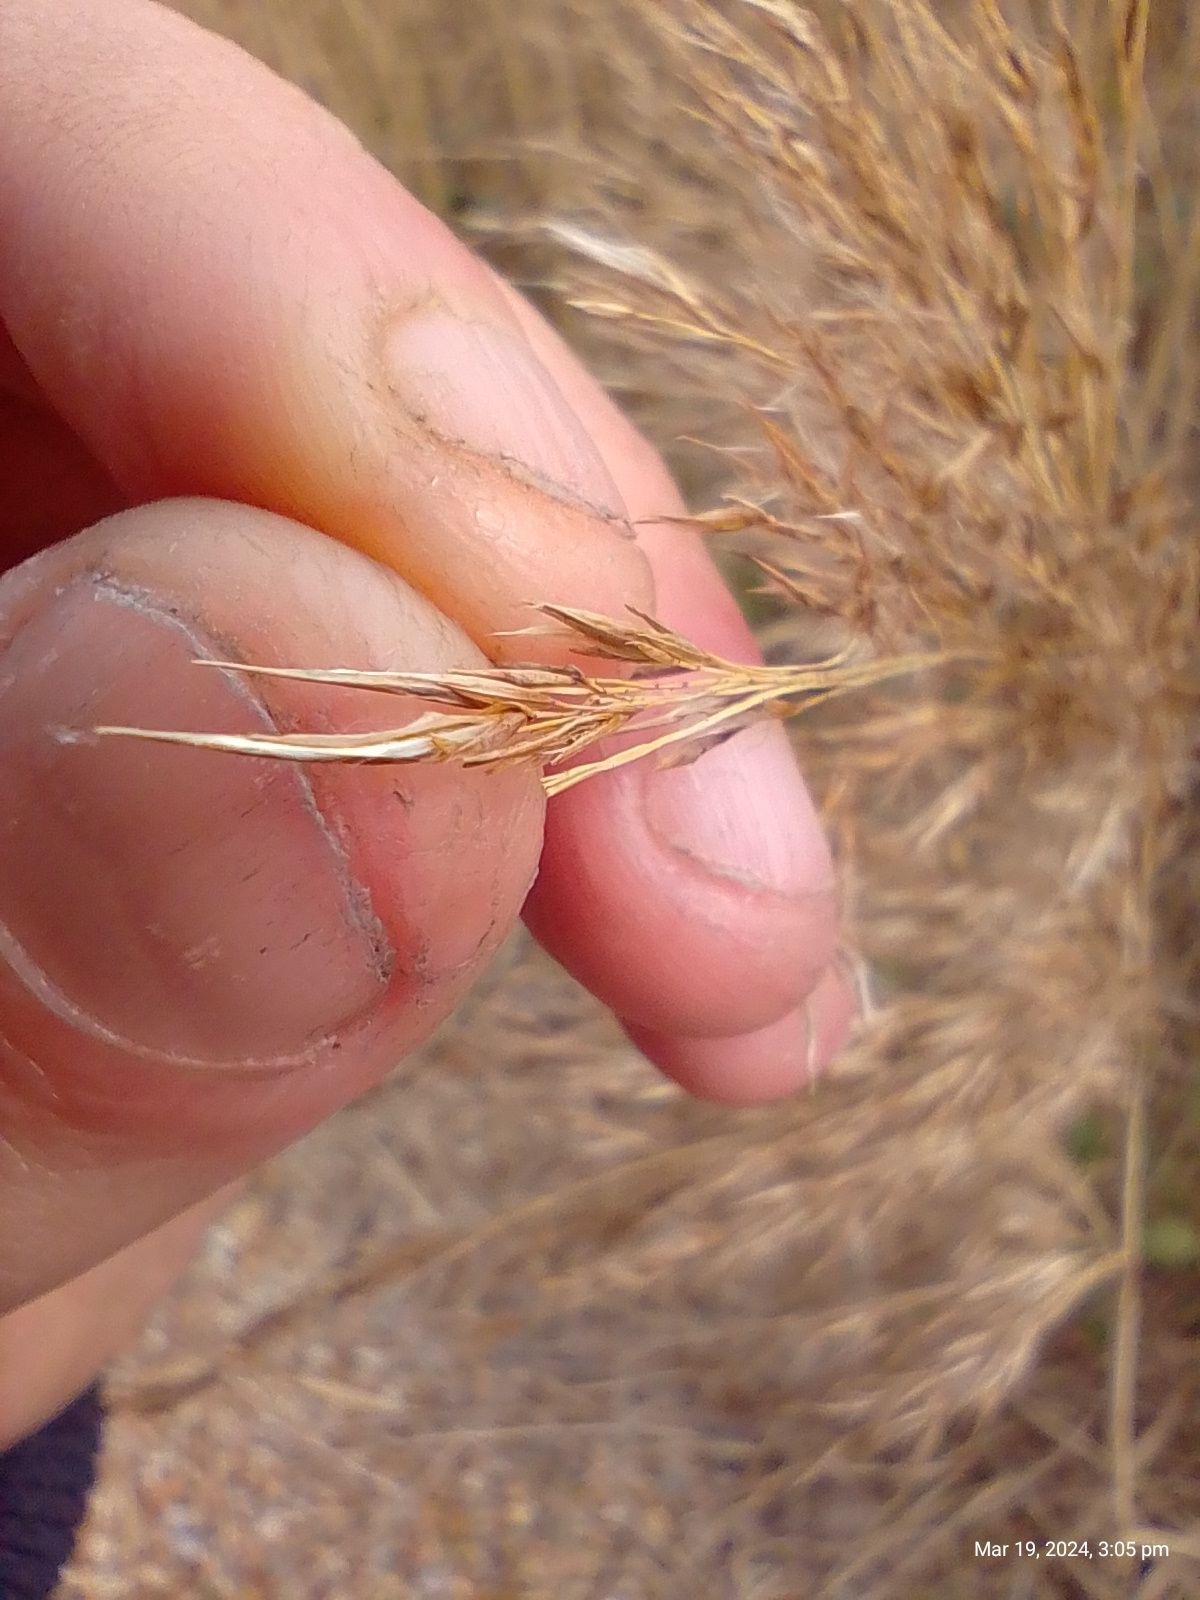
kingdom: Plantae
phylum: Tracheophyta
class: Liliopsida
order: Poales
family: Poaceae
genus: Phragmites
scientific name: Phragmites australis
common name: Common reed
